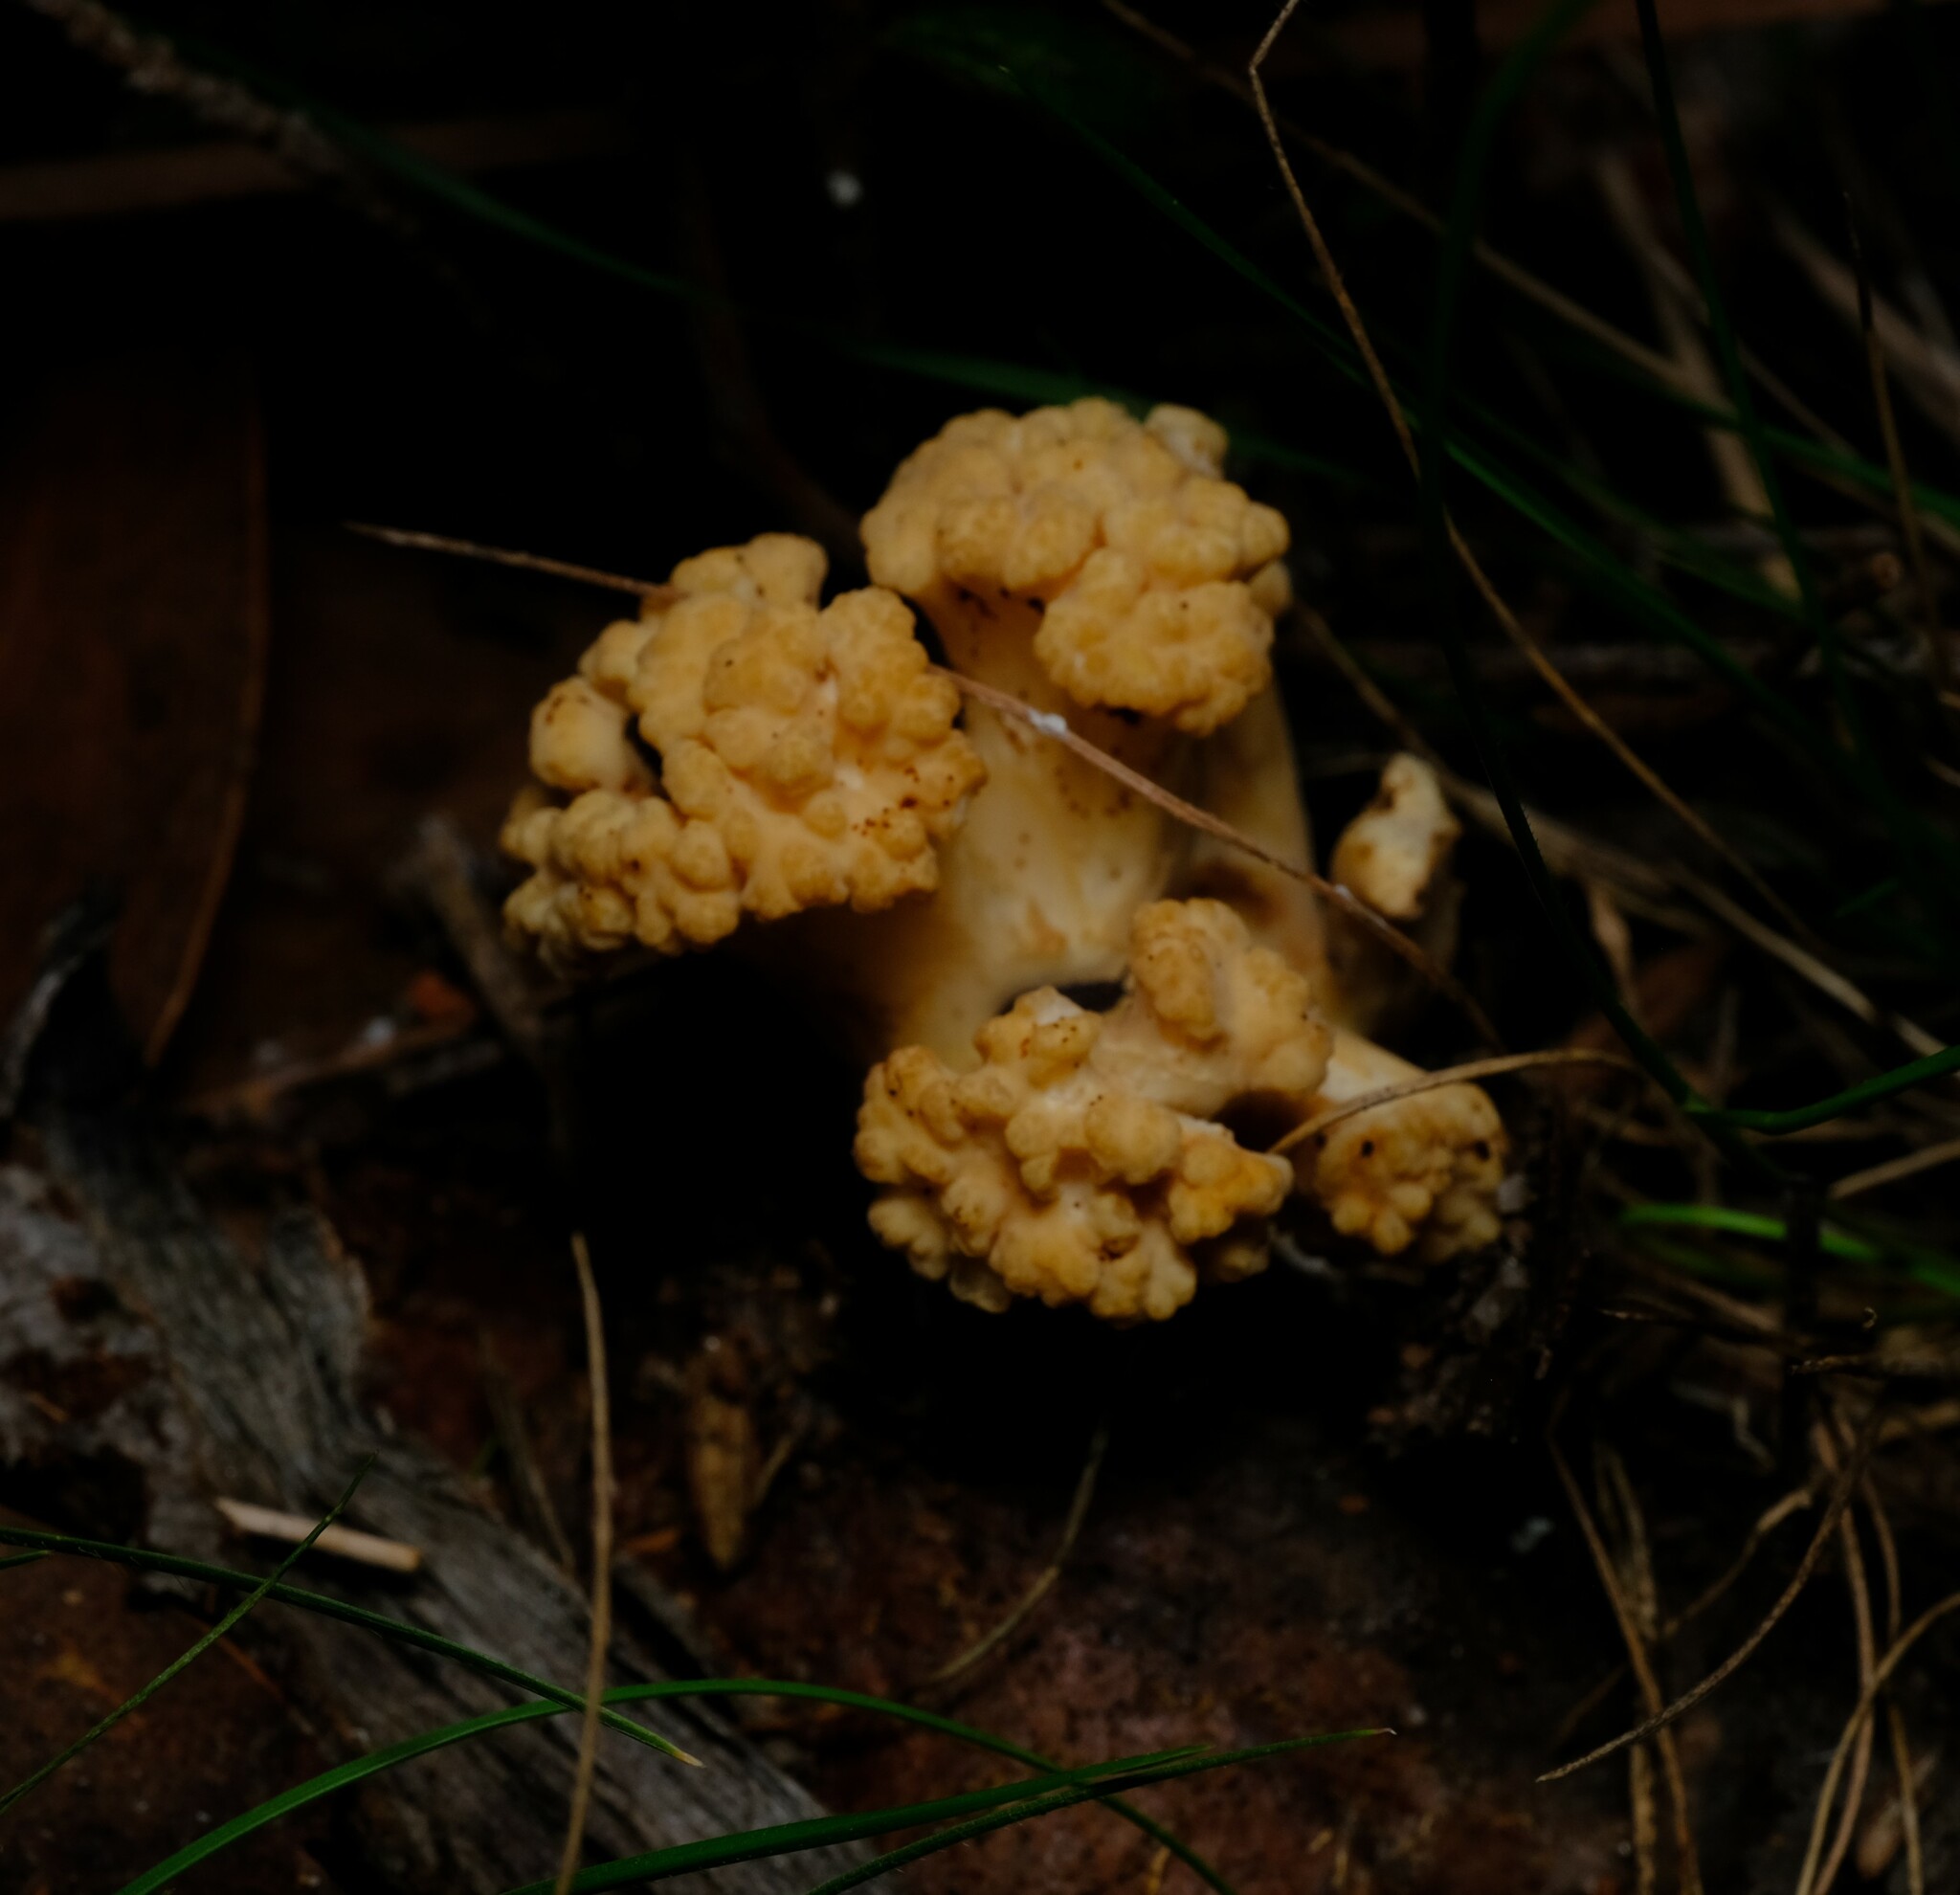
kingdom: Fungi
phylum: Basidiomycota
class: Agaricomycetes
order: Gomphales
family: Gomphaceae
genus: Ramaria
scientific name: Ramaria capitata
